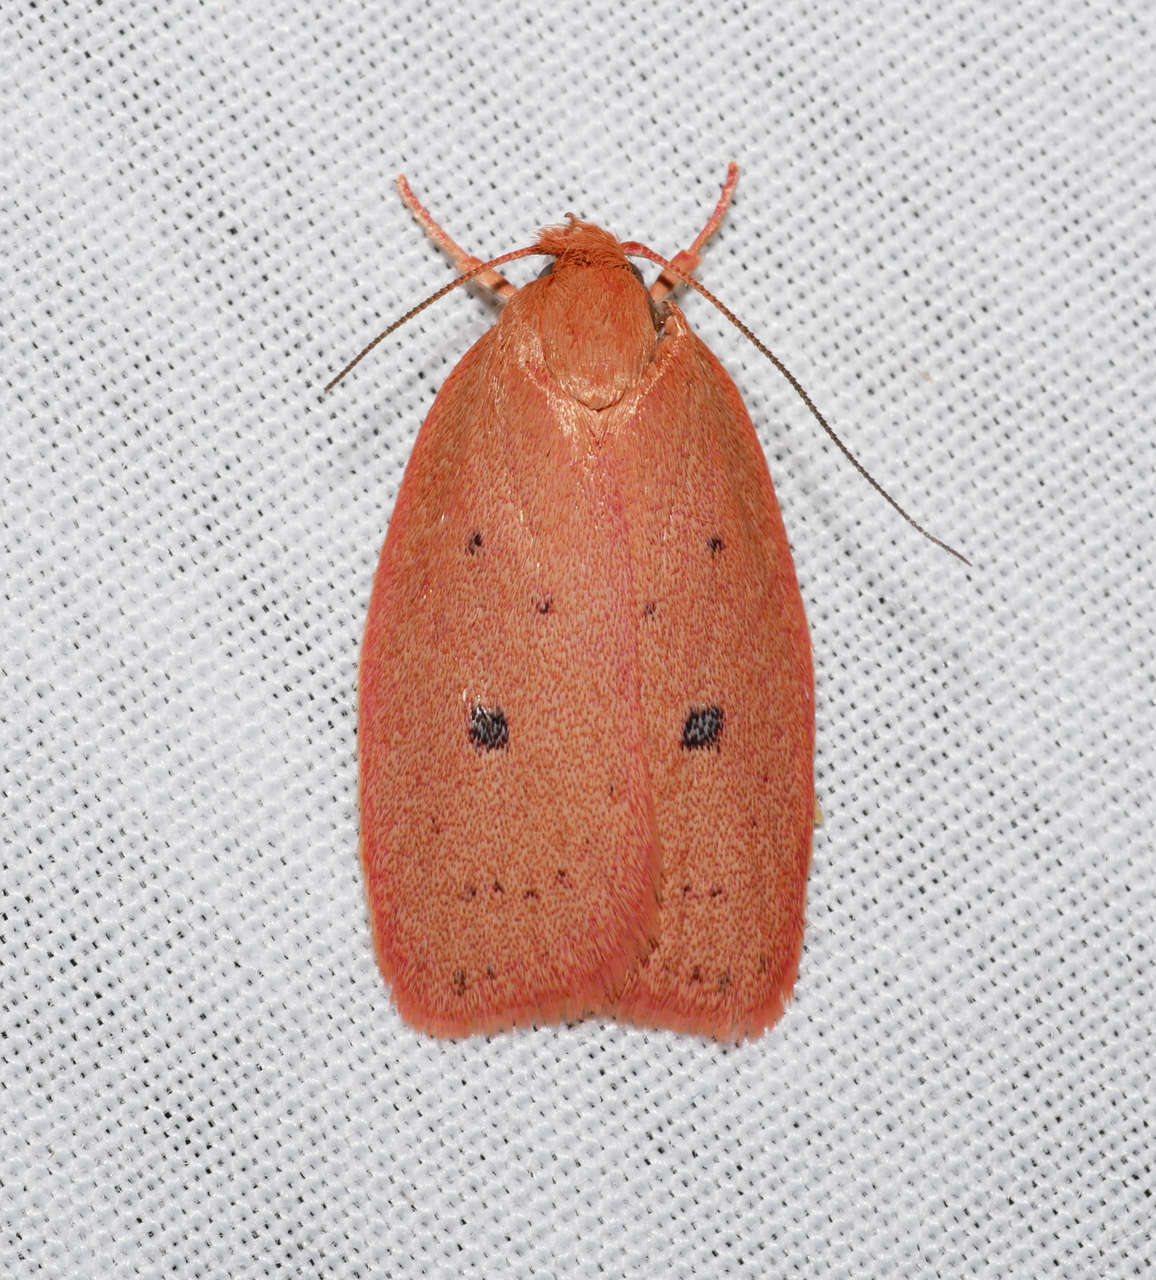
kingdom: Animalia
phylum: Arthropoda
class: Insecta
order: Lepidoptera
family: Oecophoridae
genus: Garrha
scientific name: Garrha pudica
